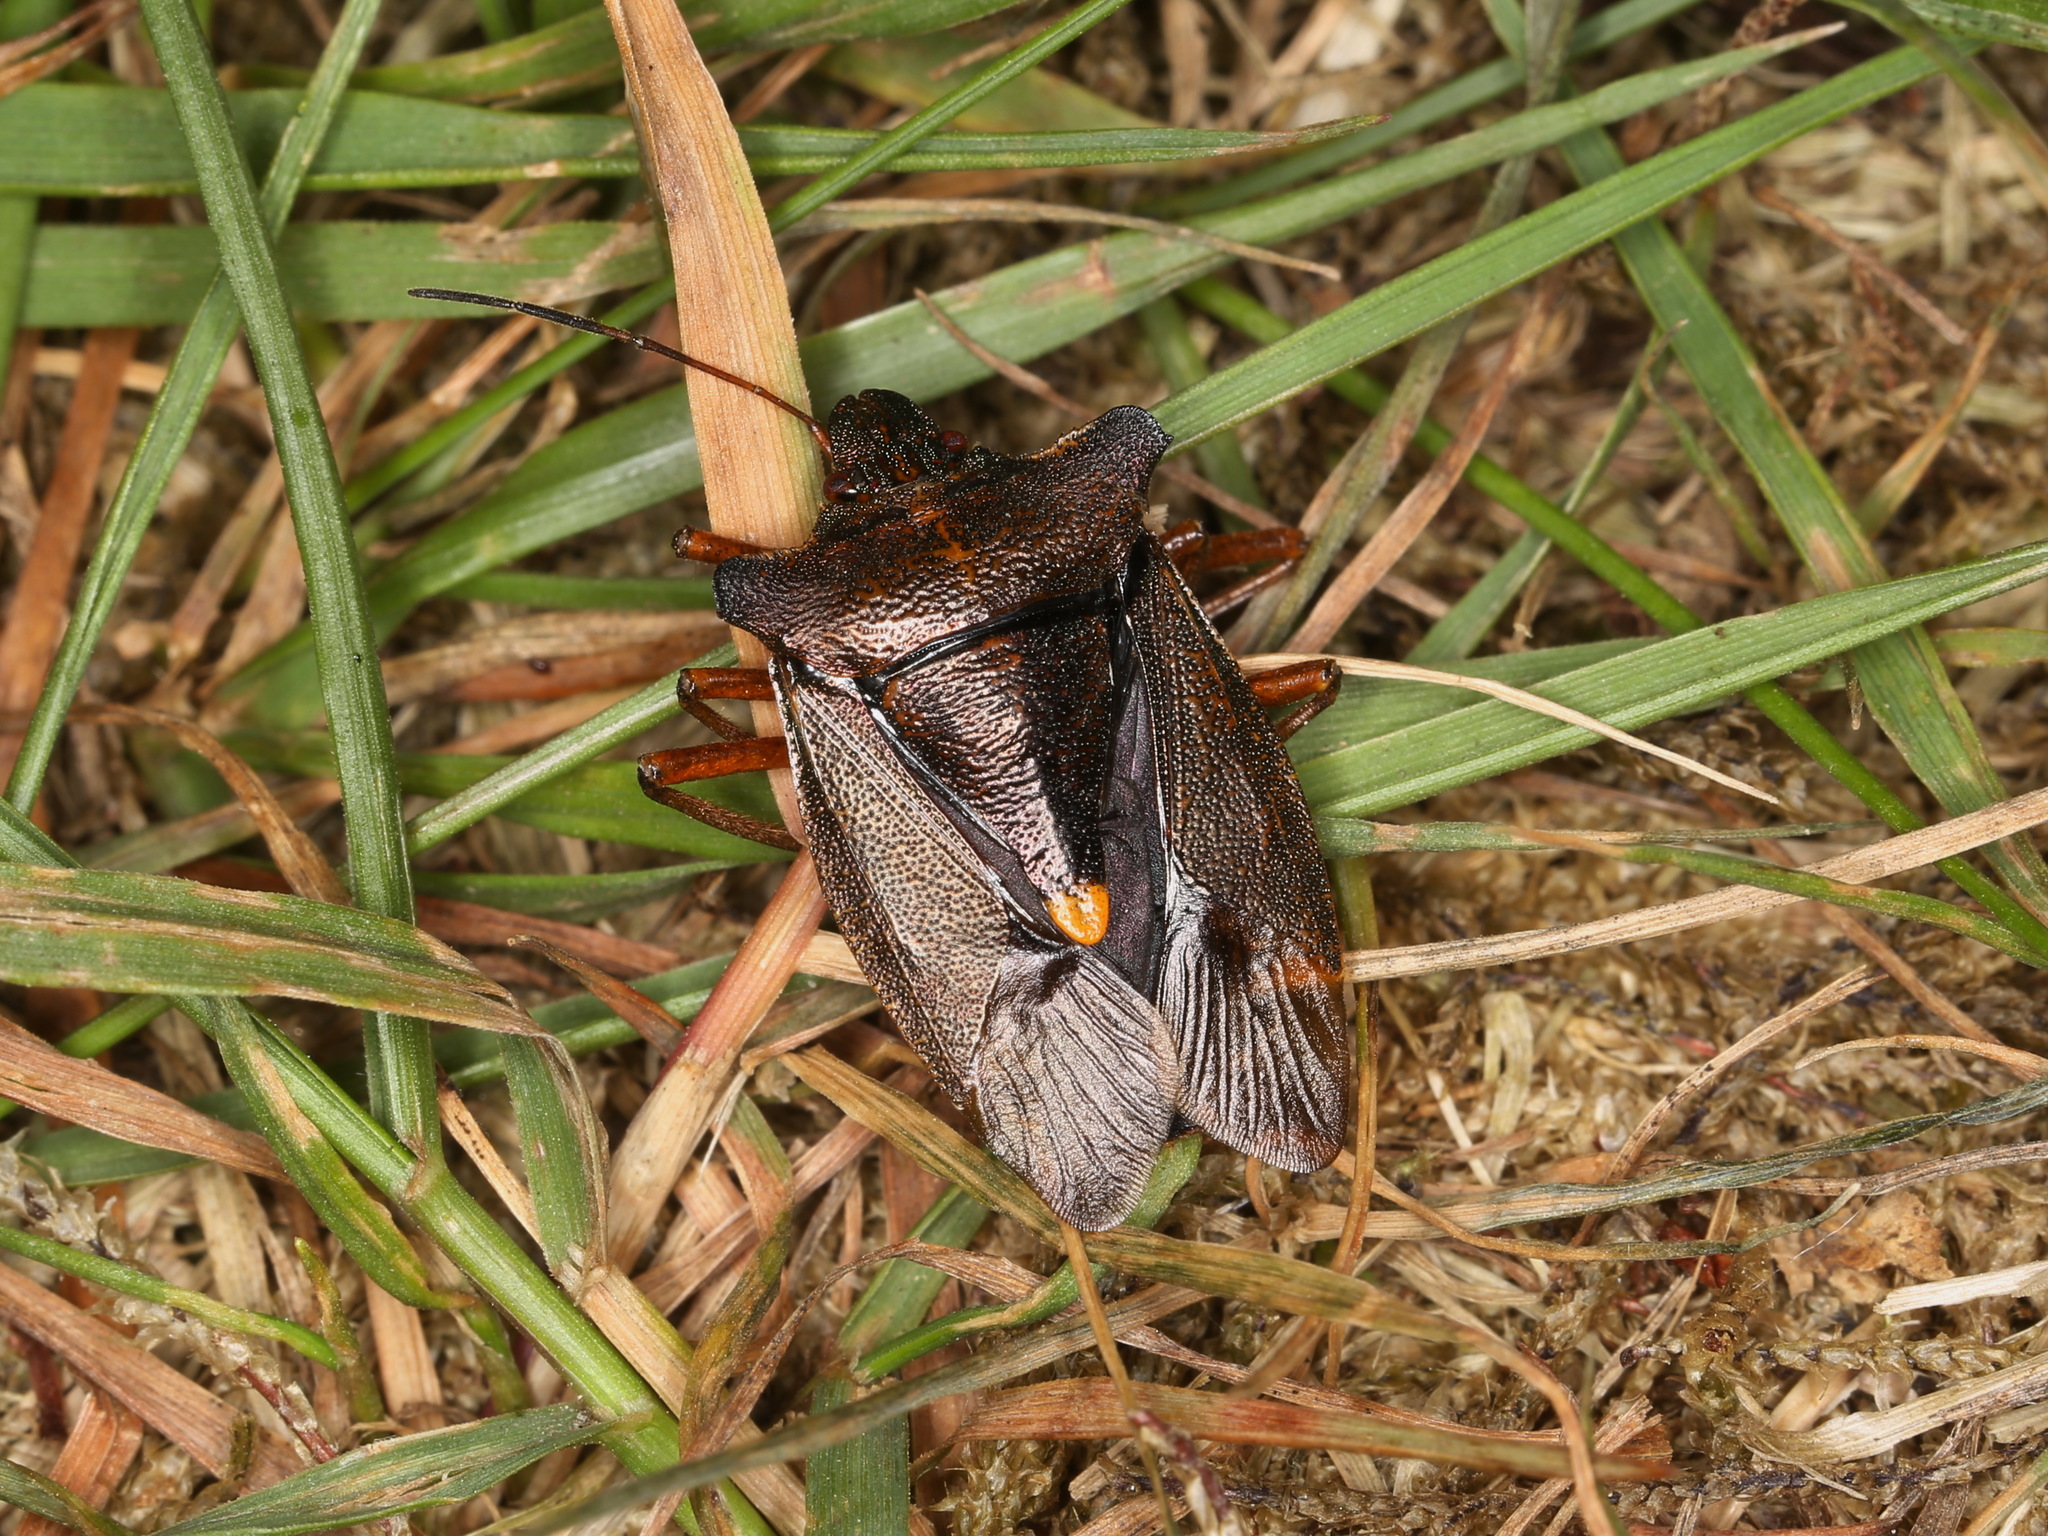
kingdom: Animalia
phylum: Arthropoda
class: Insecta
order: Hemiptera
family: Pentatomidae
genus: Pentatoma
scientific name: Pentatoma rufipes
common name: Forest bug
